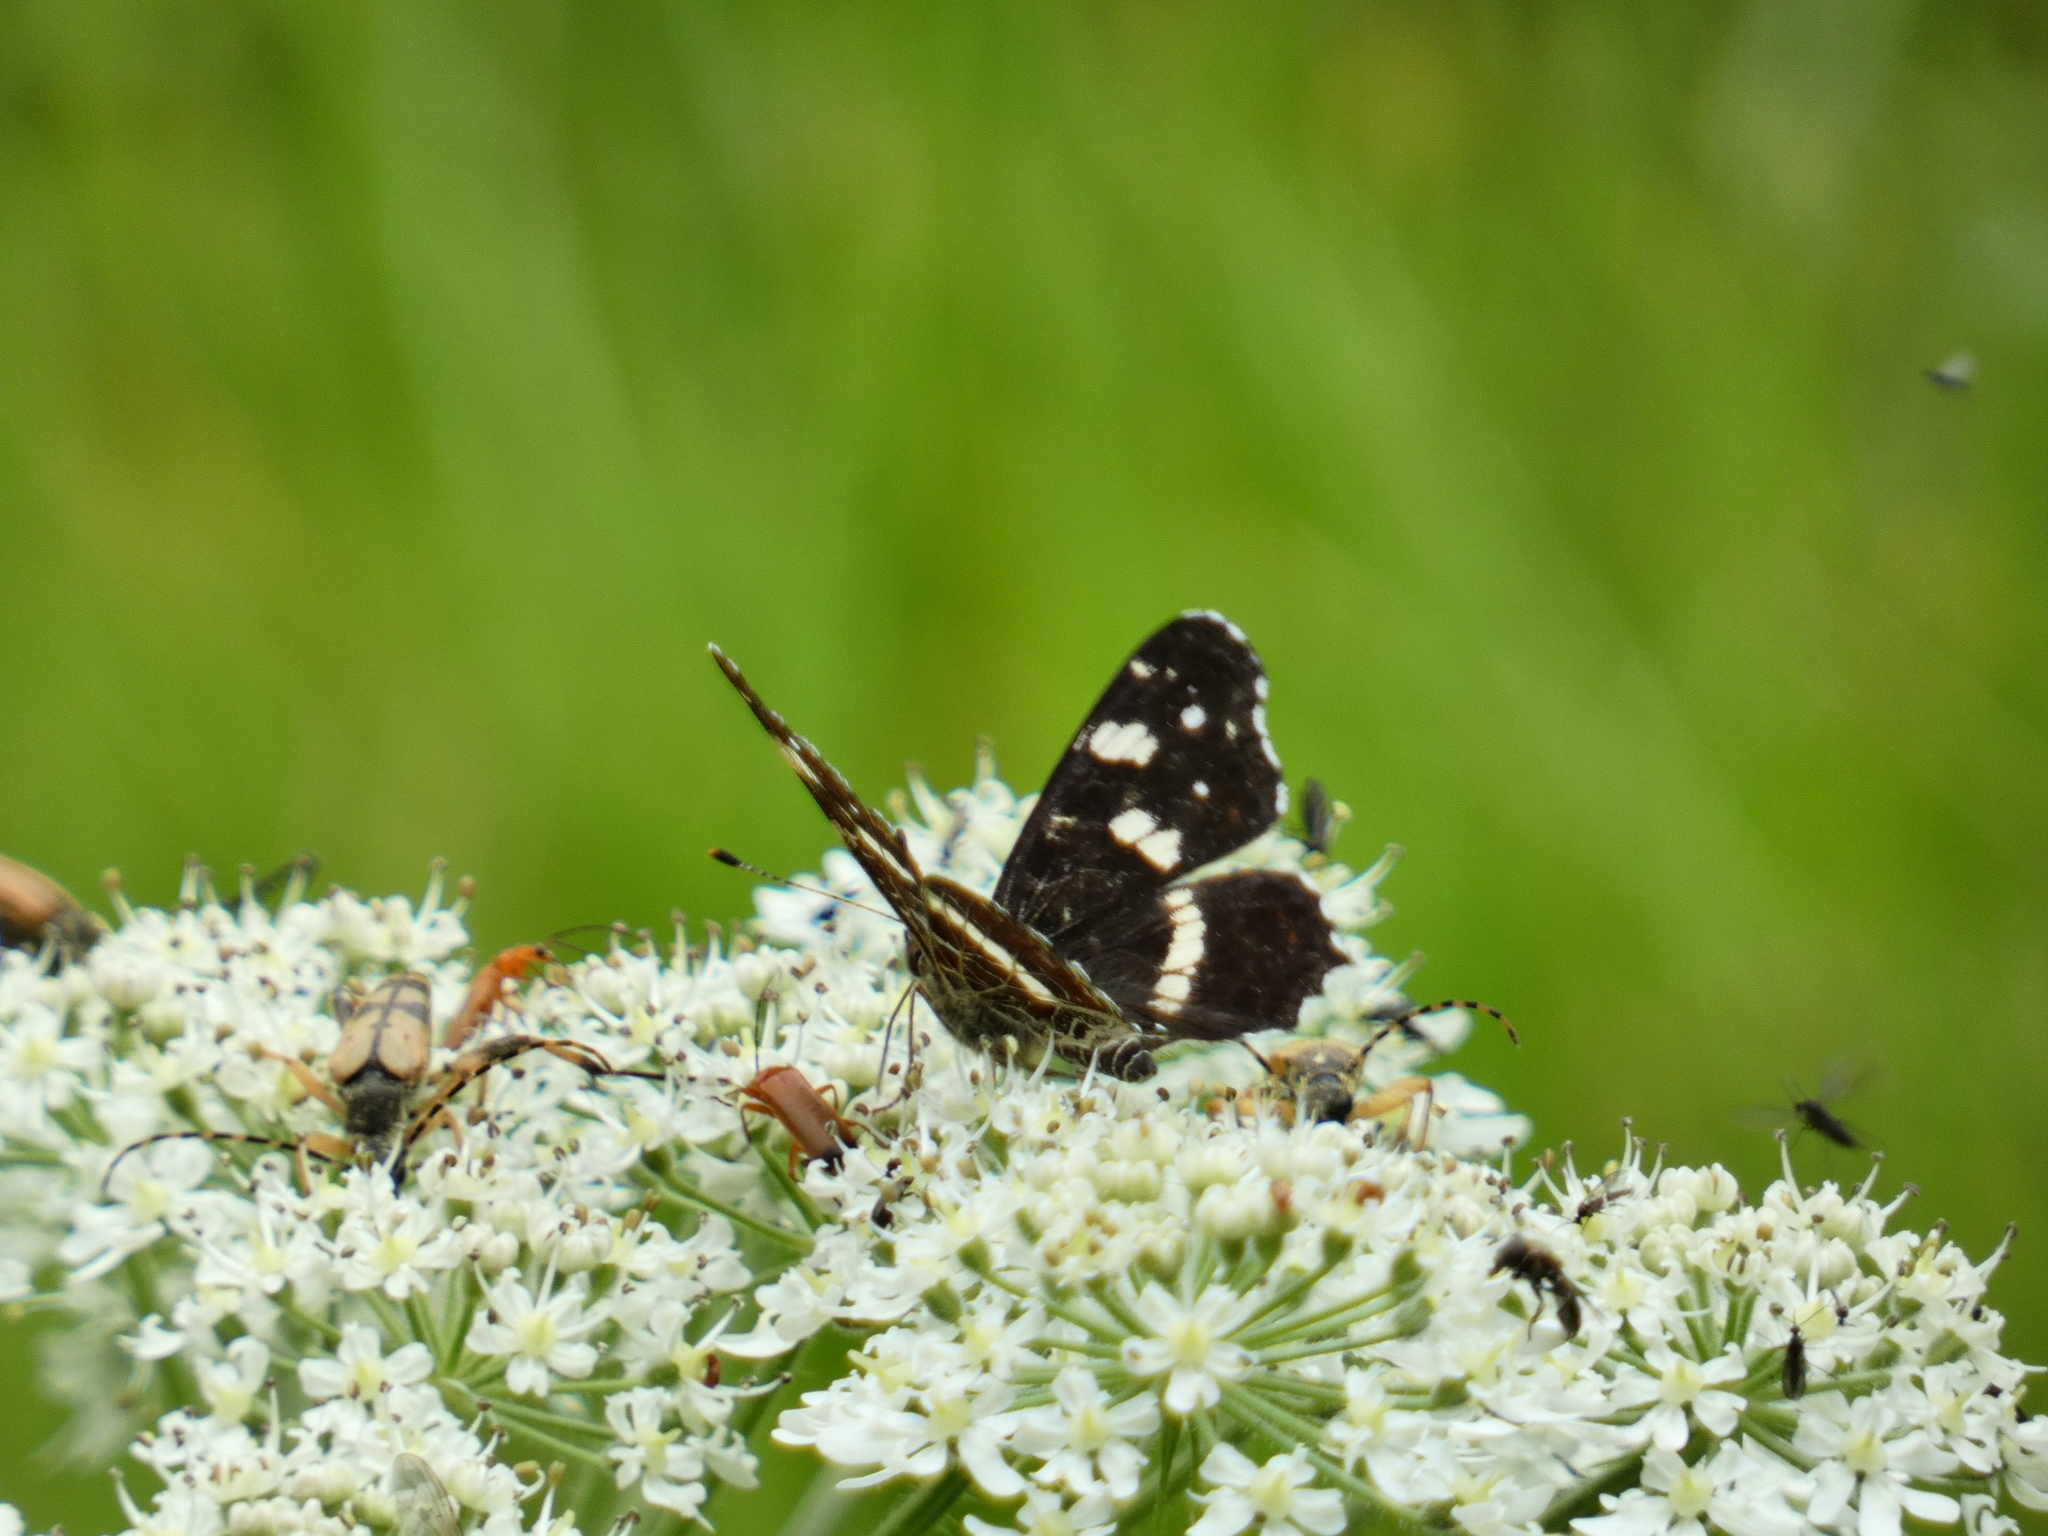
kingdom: Animalia
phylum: Arthropoda
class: Insecta
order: Lepidoptera
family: Nymphalidae
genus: Araschnia
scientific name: Araschnia levana
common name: Map butterfly
